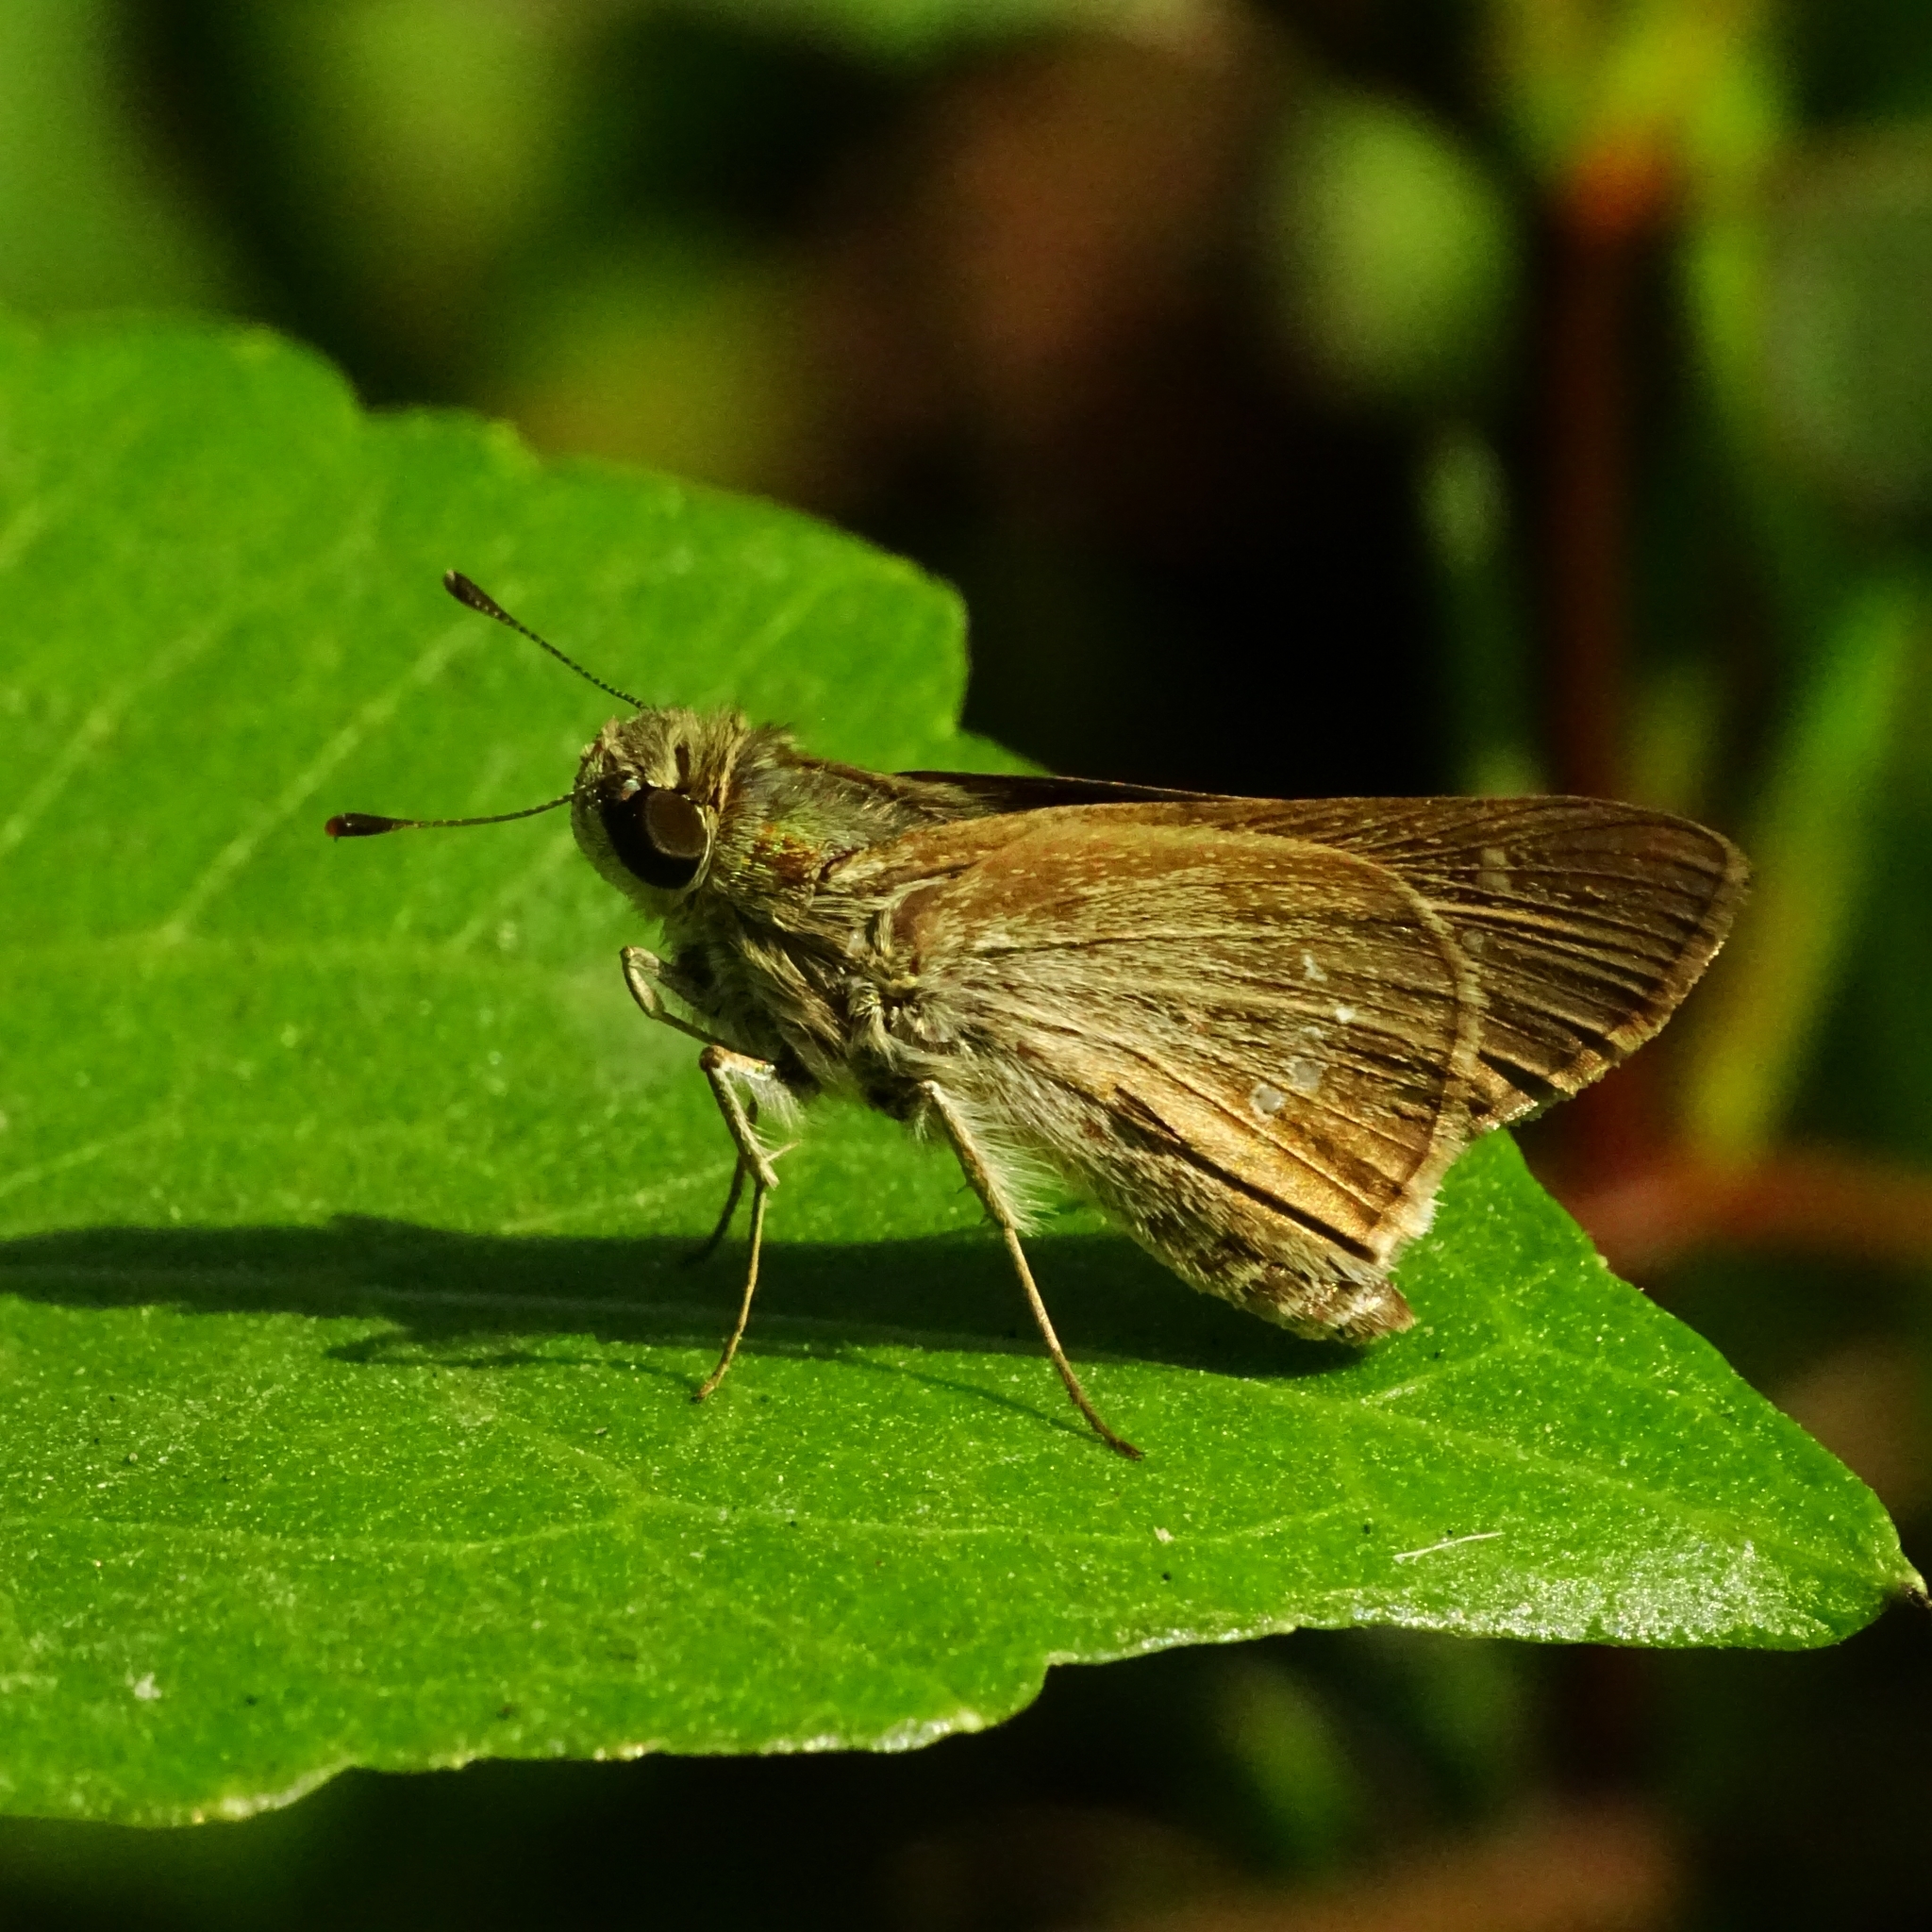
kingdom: Animalia
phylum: Arthropoda
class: Insecta
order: Lepidoptera
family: Hesperiidae
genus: Parnara
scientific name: Parnara naso
